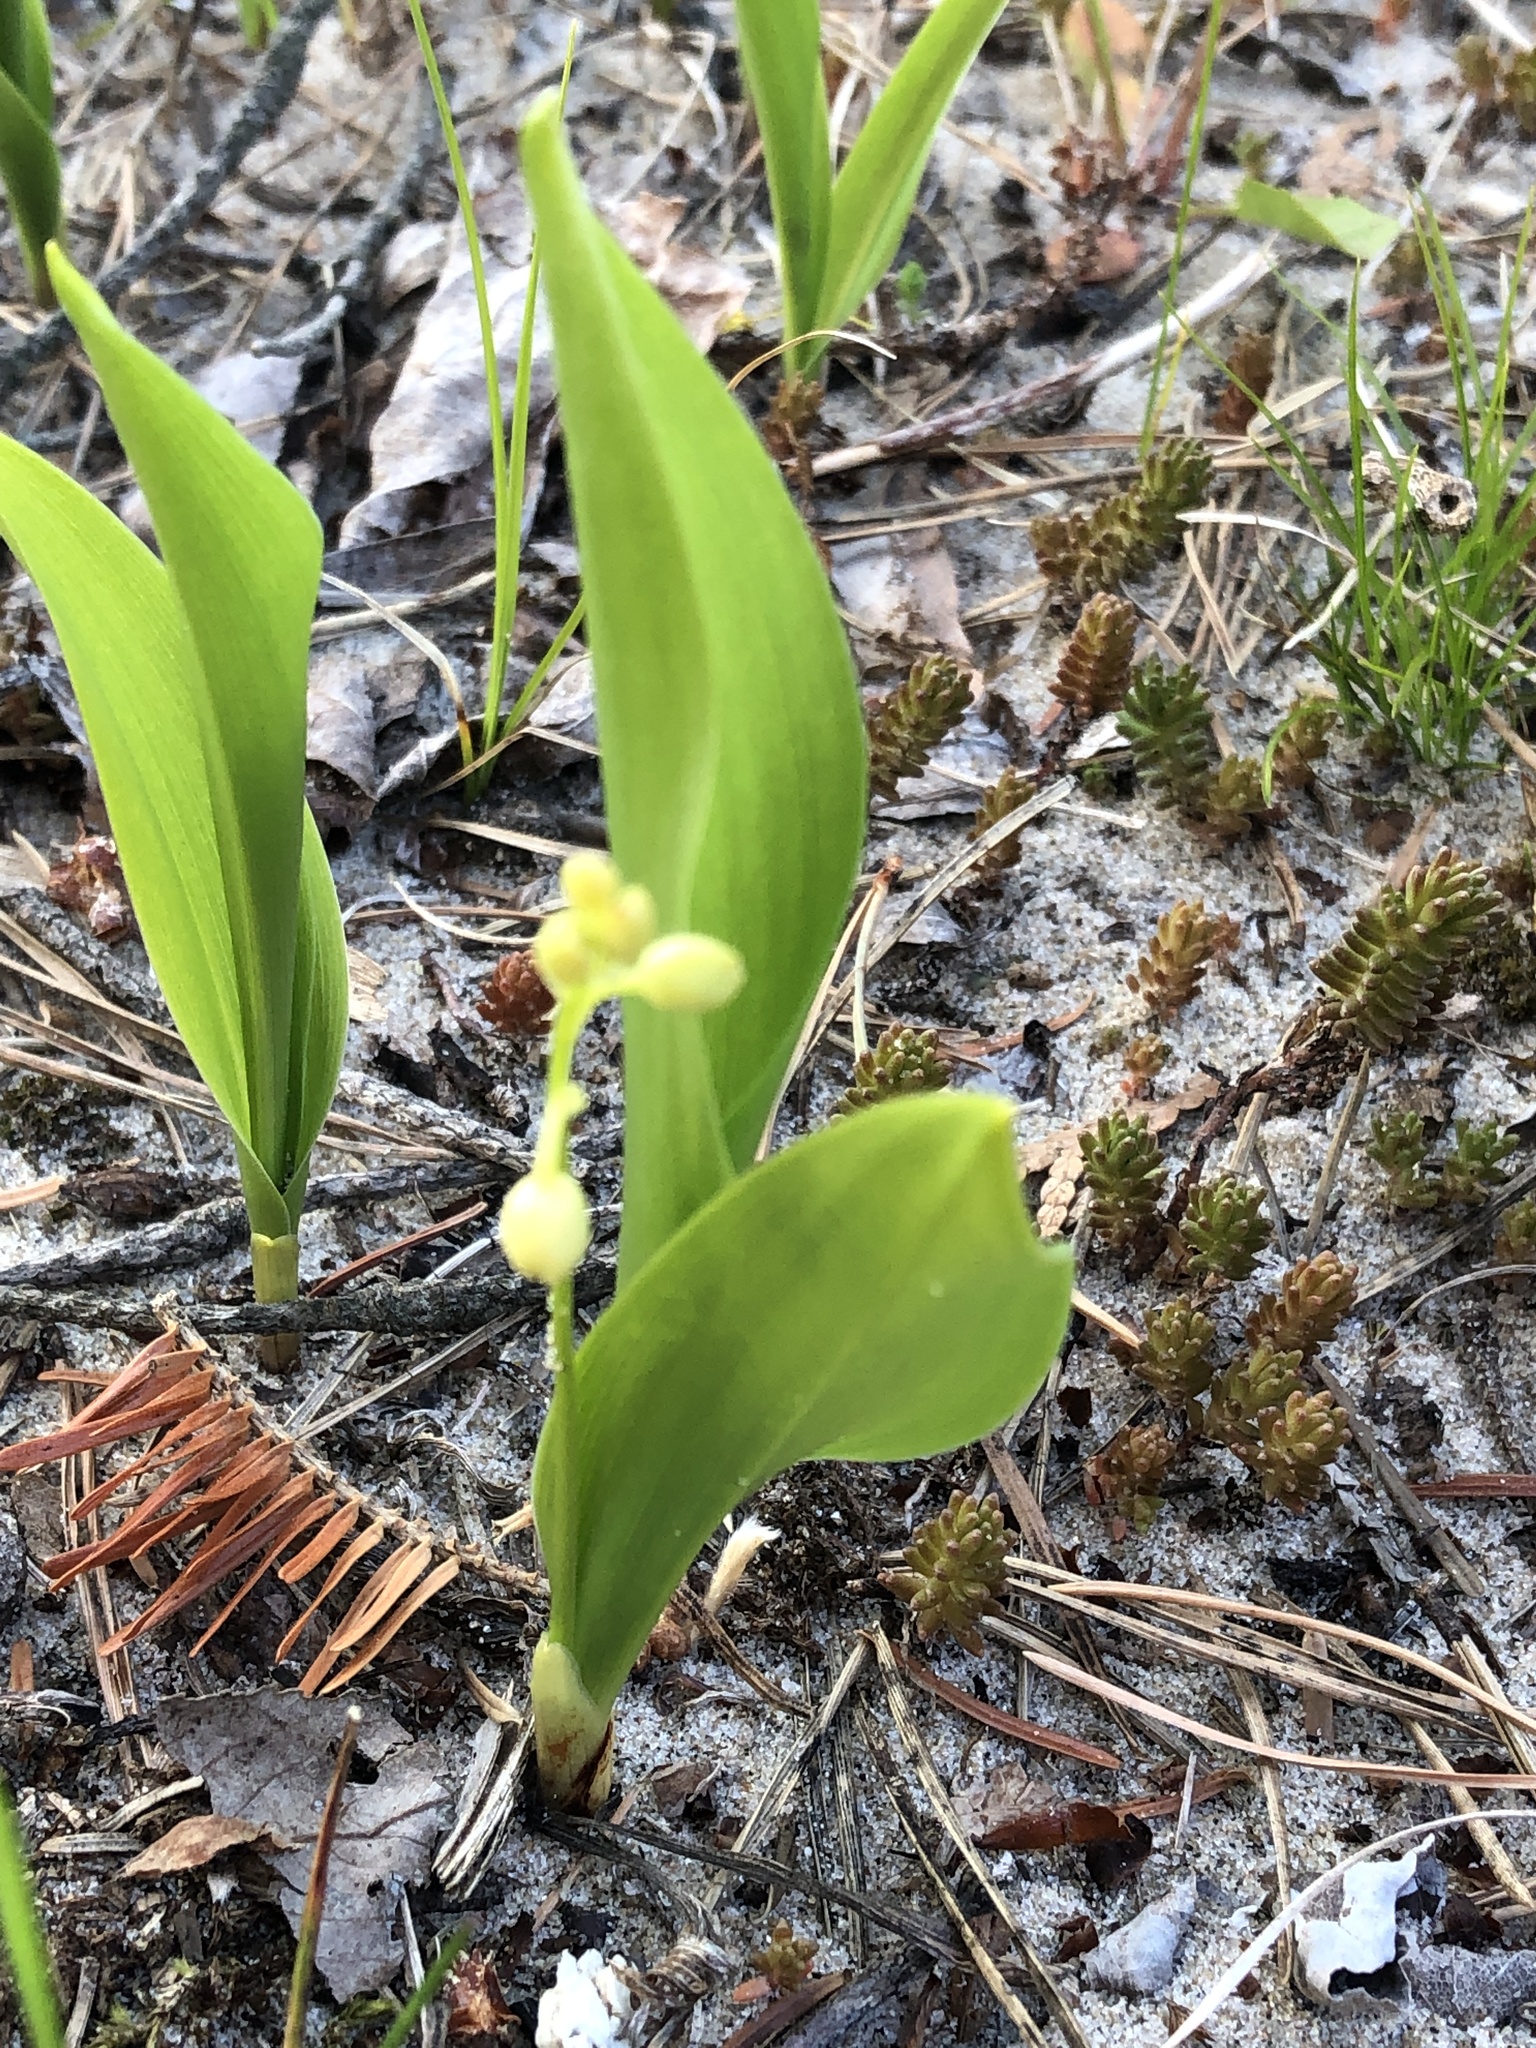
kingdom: Plantae
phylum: Tracheophyta
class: Liliopsida
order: Asparagales
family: Asparagaceae
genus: Convallaria
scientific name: Convallaria majalis
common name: Lily-of-the-valley
